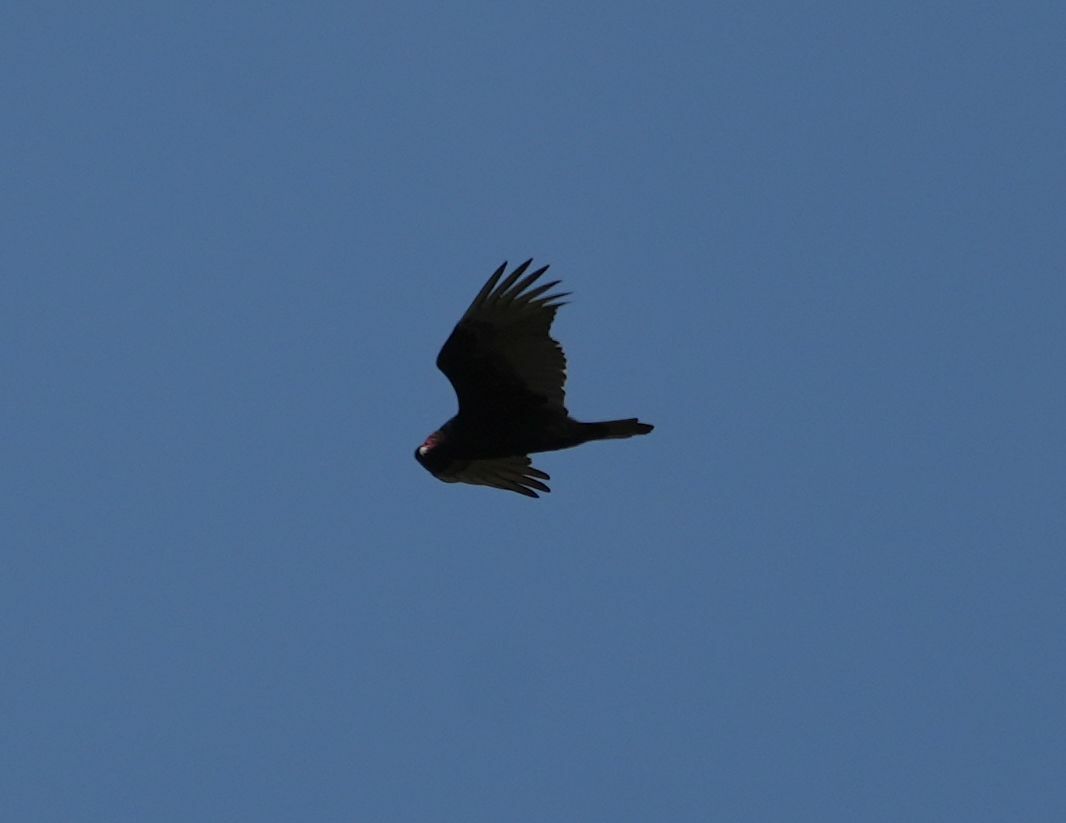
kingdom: Animalia
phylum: Chordata
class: Aves
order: Accipitriformes
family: Cathartidae
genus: Cathartes
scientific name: Cathartes aura
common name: Turkey vulture
